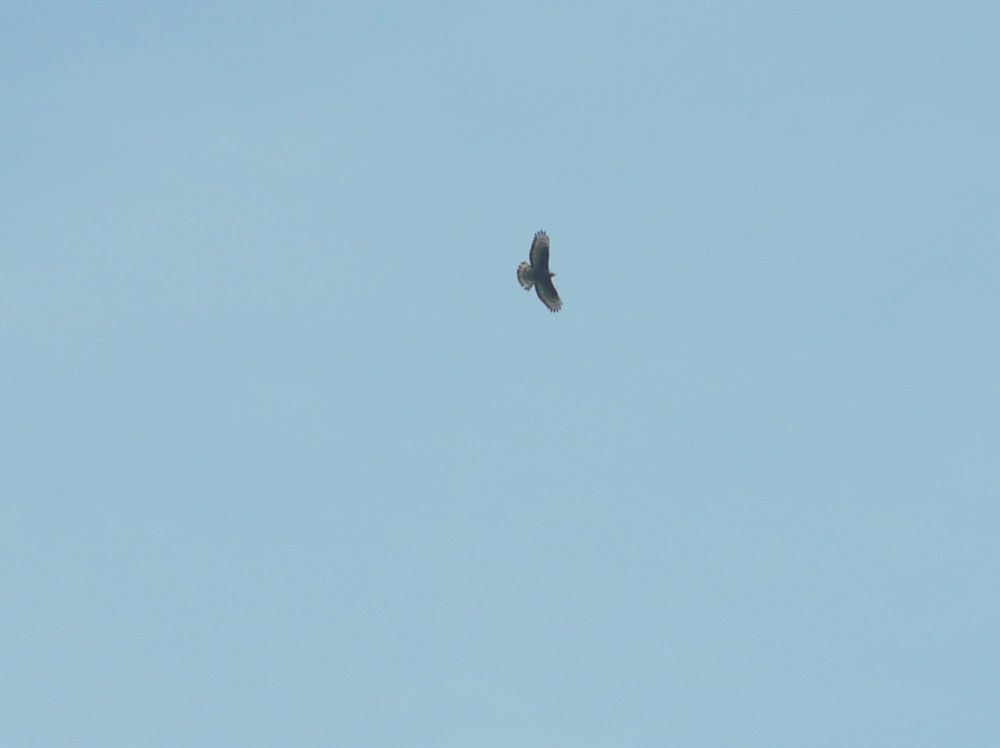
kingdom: Animalia
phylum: Chordata
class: Aves
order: Accipitriformes
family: Accipitridae
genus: Pernis
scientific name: Pernis apivorus
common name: European honey buzzard
